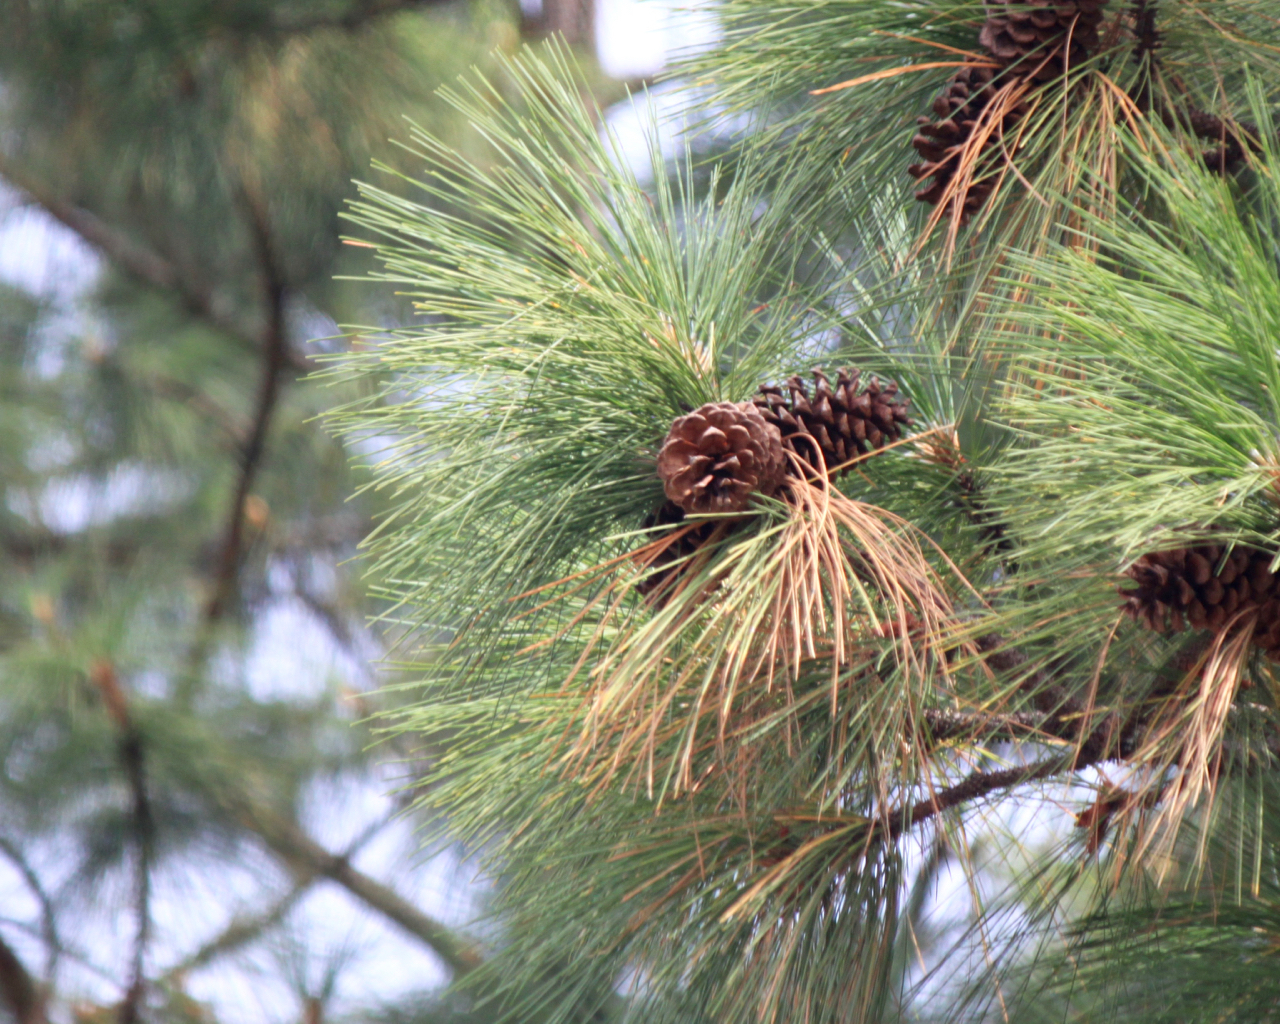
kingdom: Plantae
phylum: Tracheophyta
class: Pinopsida
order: Pinales
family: Pinaceae
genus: Pinus
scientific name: Pinus ponderosa
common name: Western yellow-pine
